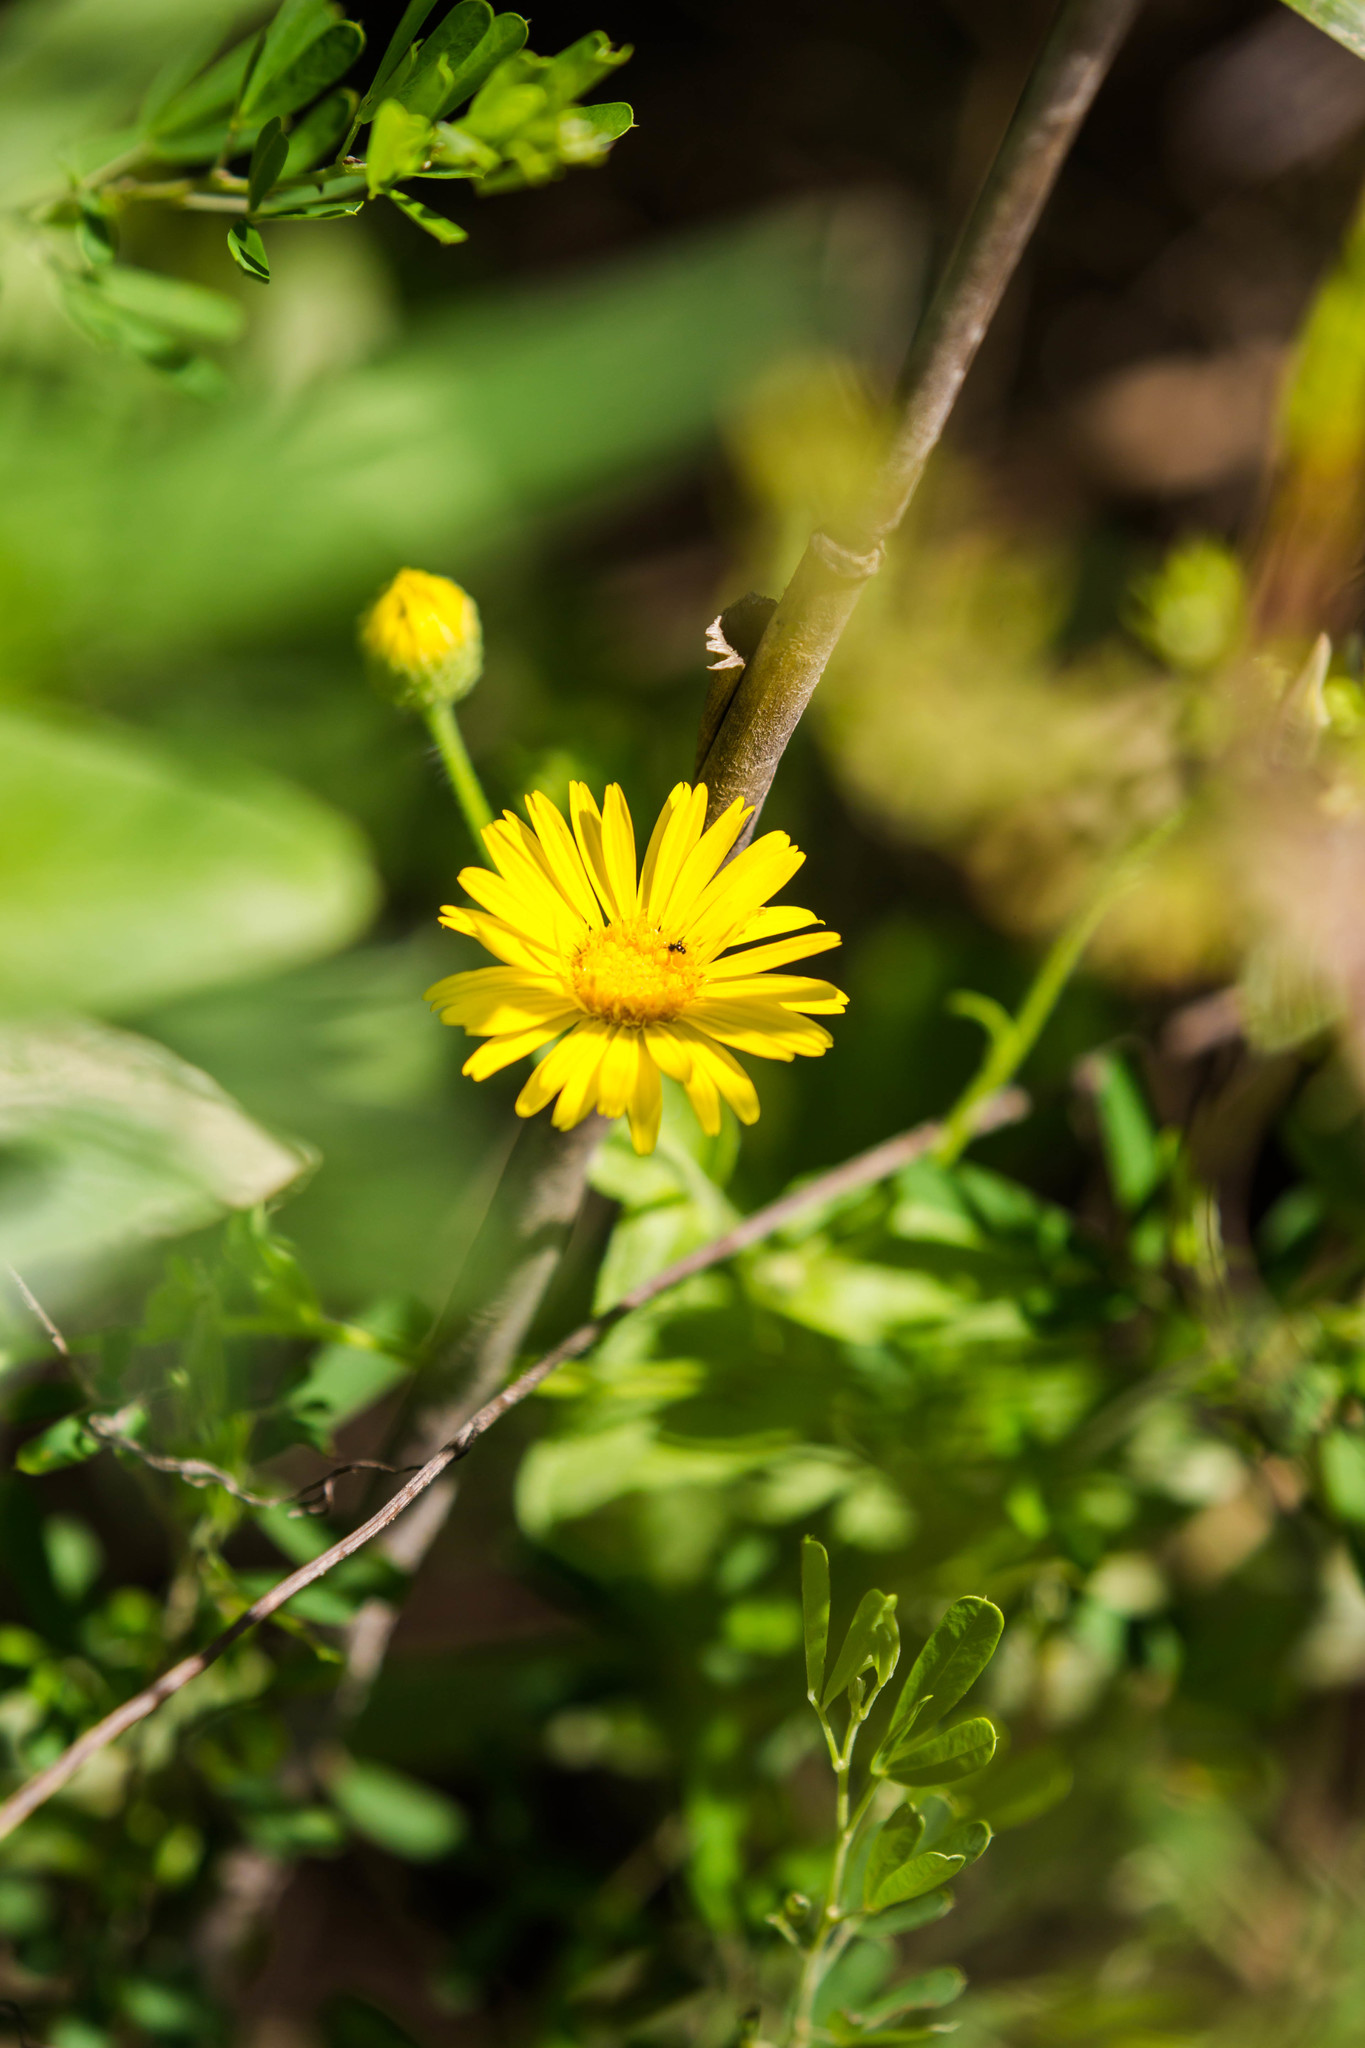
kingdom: Plantae
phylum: Tracheophyta
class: Magnoliopsida
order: Asterales
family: Asteraceae
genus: Heterotheca
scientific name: Heterotheca subaxillaris
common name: Camphorweed
